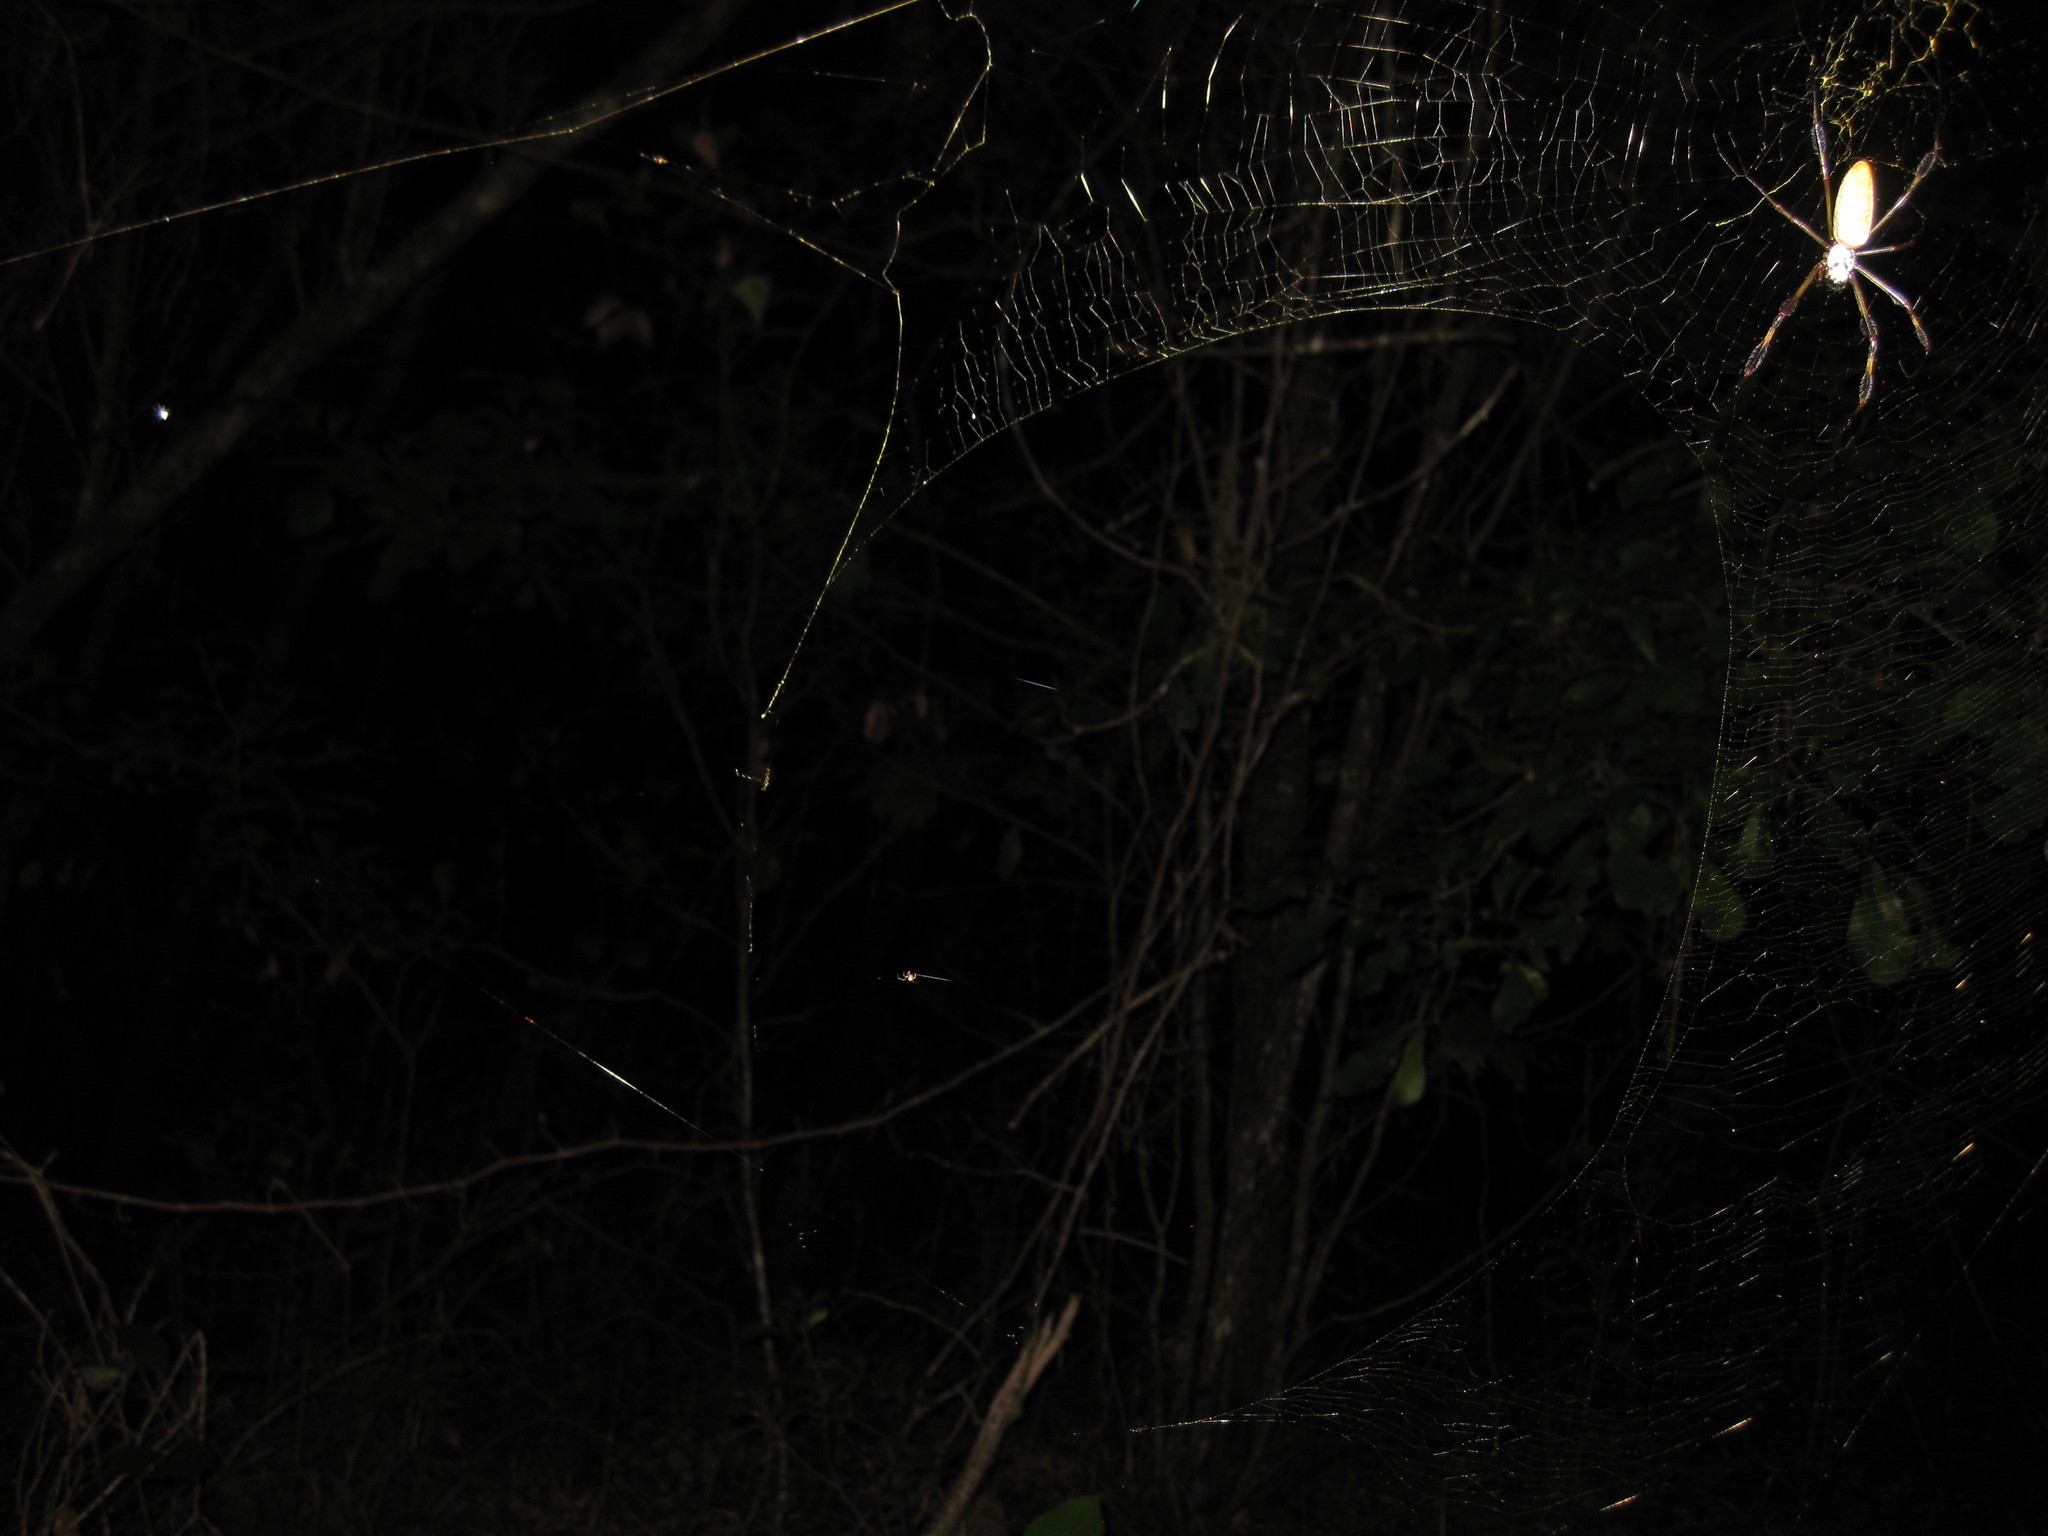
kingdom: Animalia
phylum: Arthropoda
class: Arachnida
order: Araneae
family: Araneidae
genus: Trichonephila
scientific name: Trichonephila clavipes
